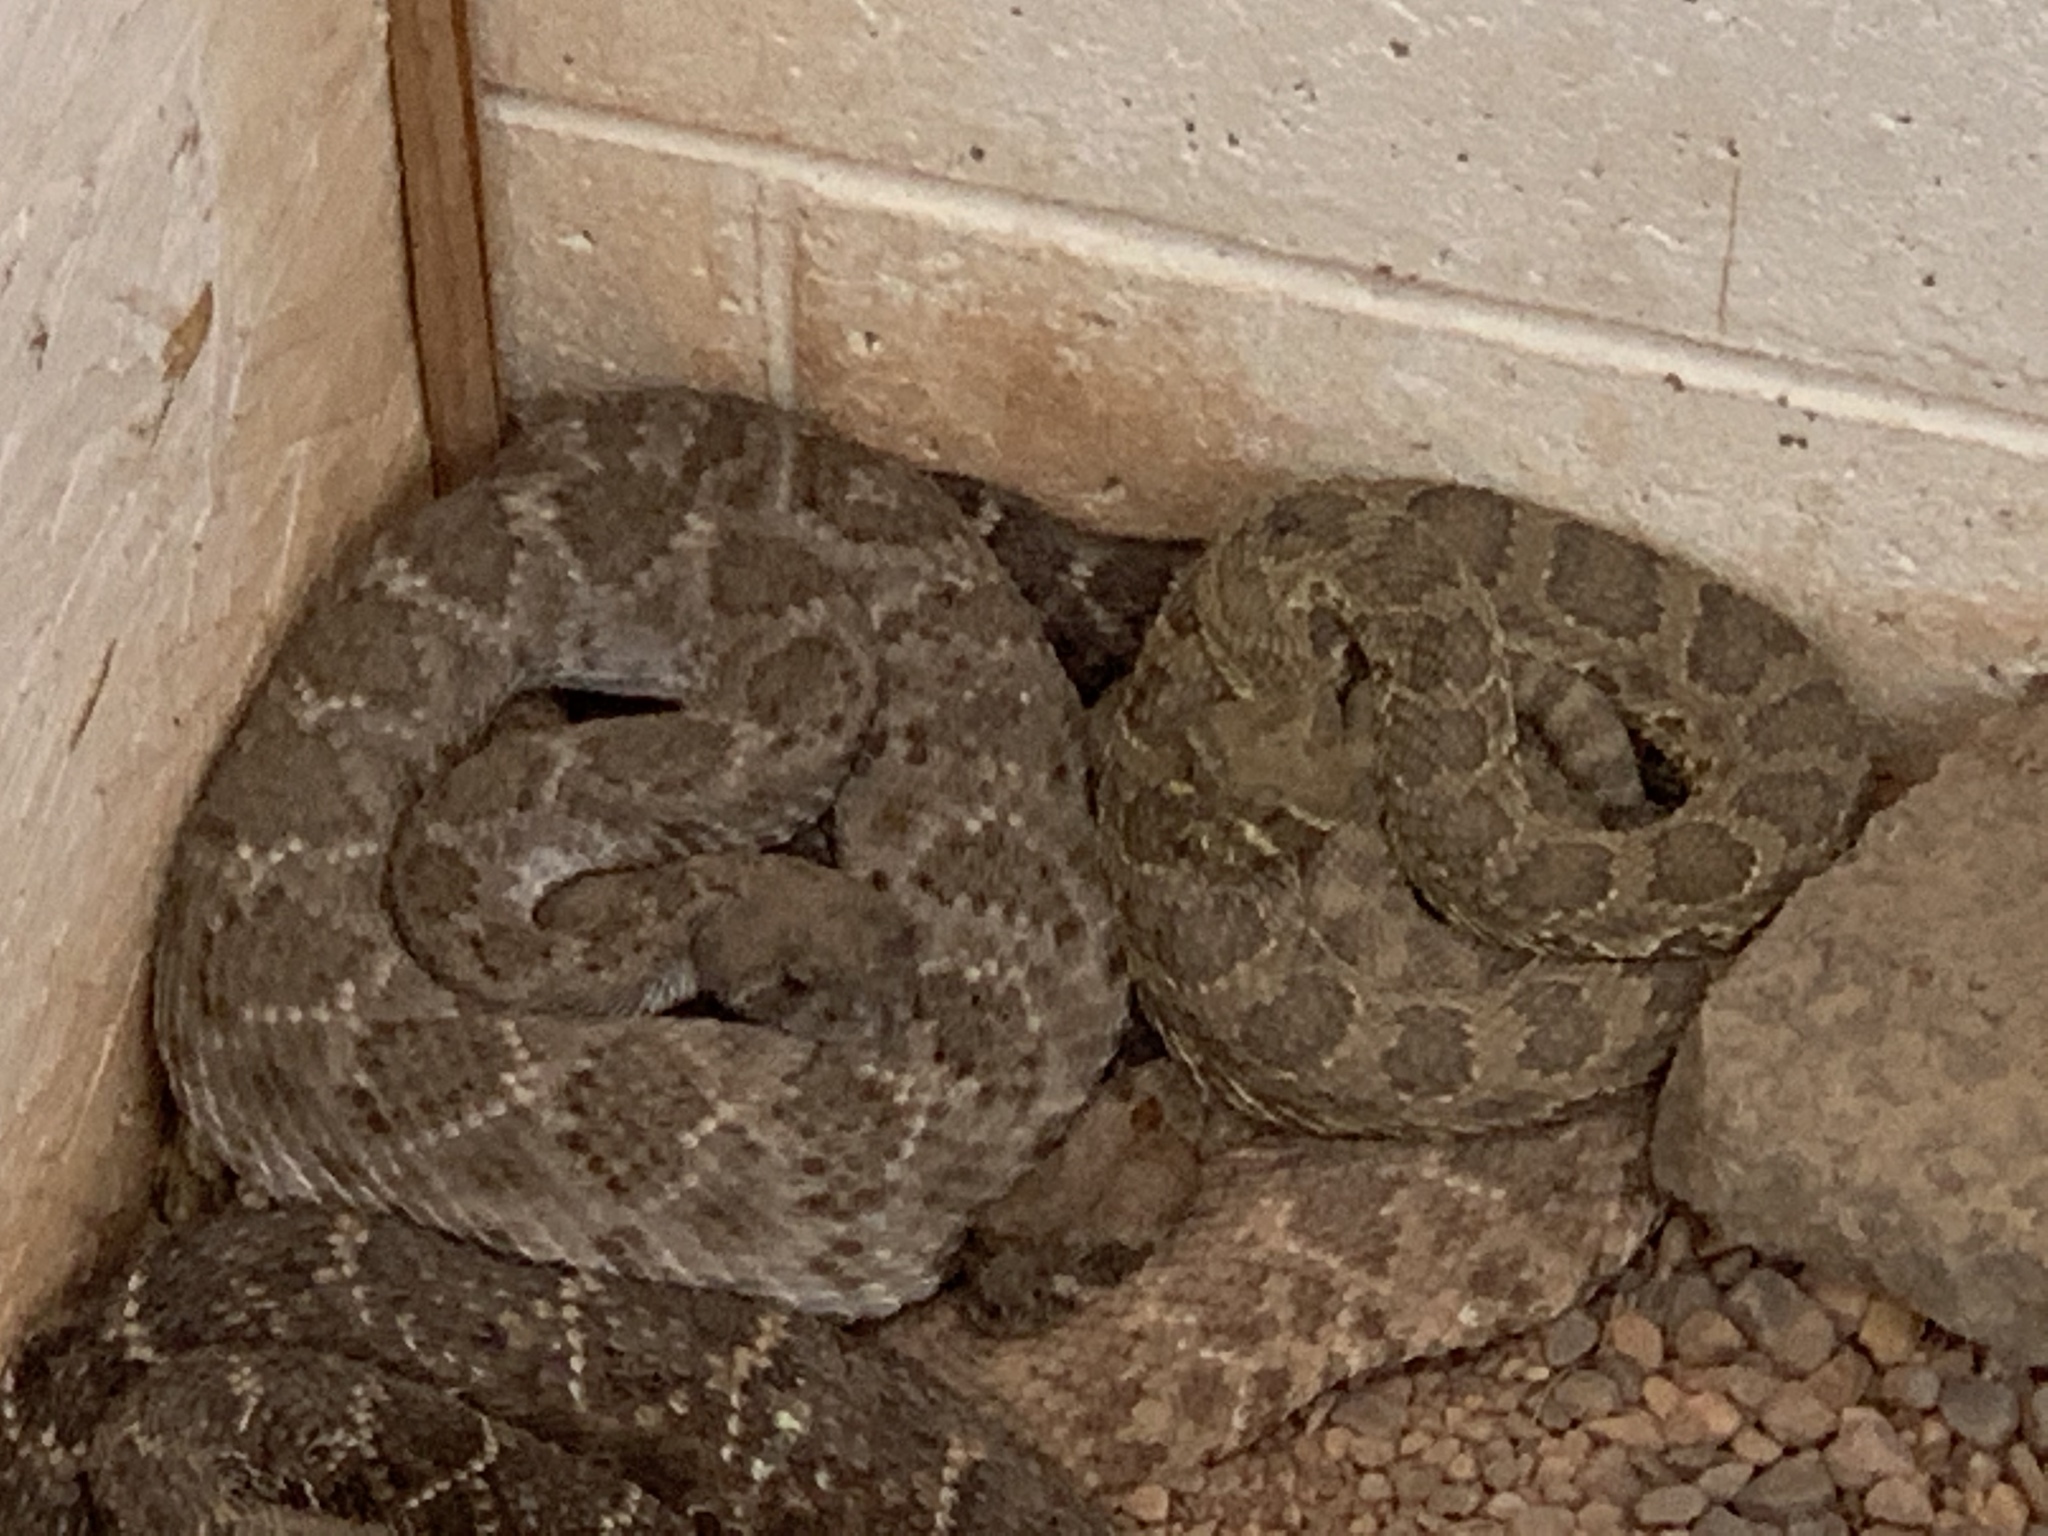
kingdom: Animalia
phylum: Chordata
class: Squamata
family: Viperidae
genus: Crotalus
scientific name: Crotalus atrox
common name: Western diamond-backed rattlesnake
